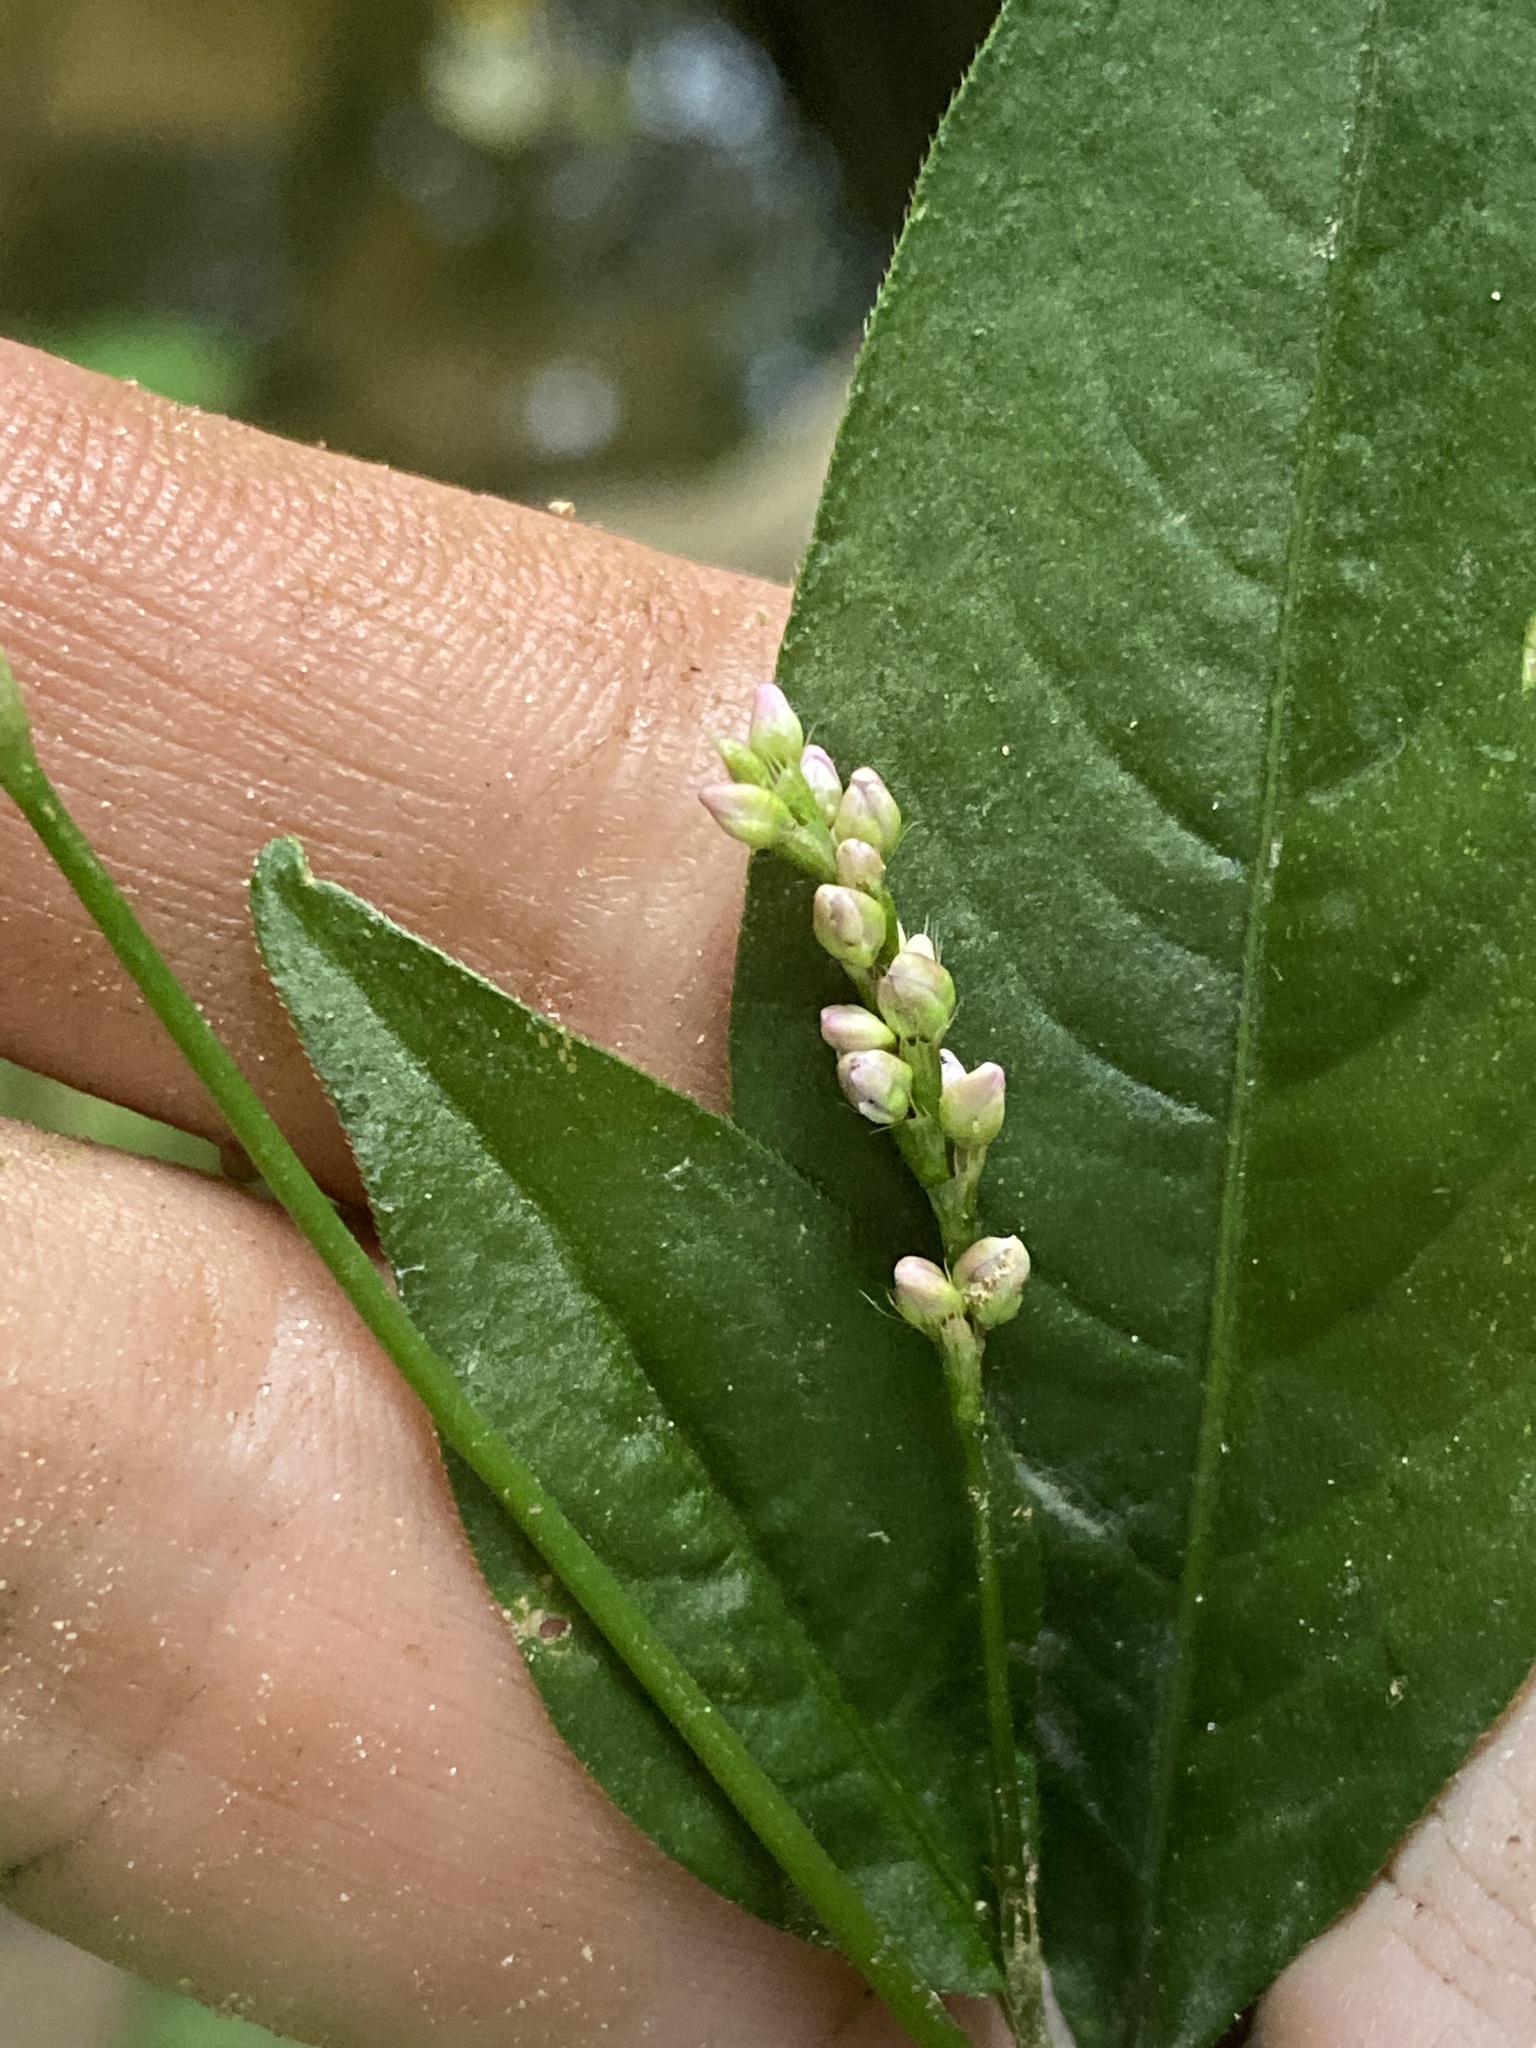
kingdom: Plantae
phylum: Tracheophyta
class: Magnoliopsida
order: Caryophyllales
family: Polygonaceae
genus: Persicaria
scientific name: Persicaria longiseta
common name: Bristly lady's-thumb
